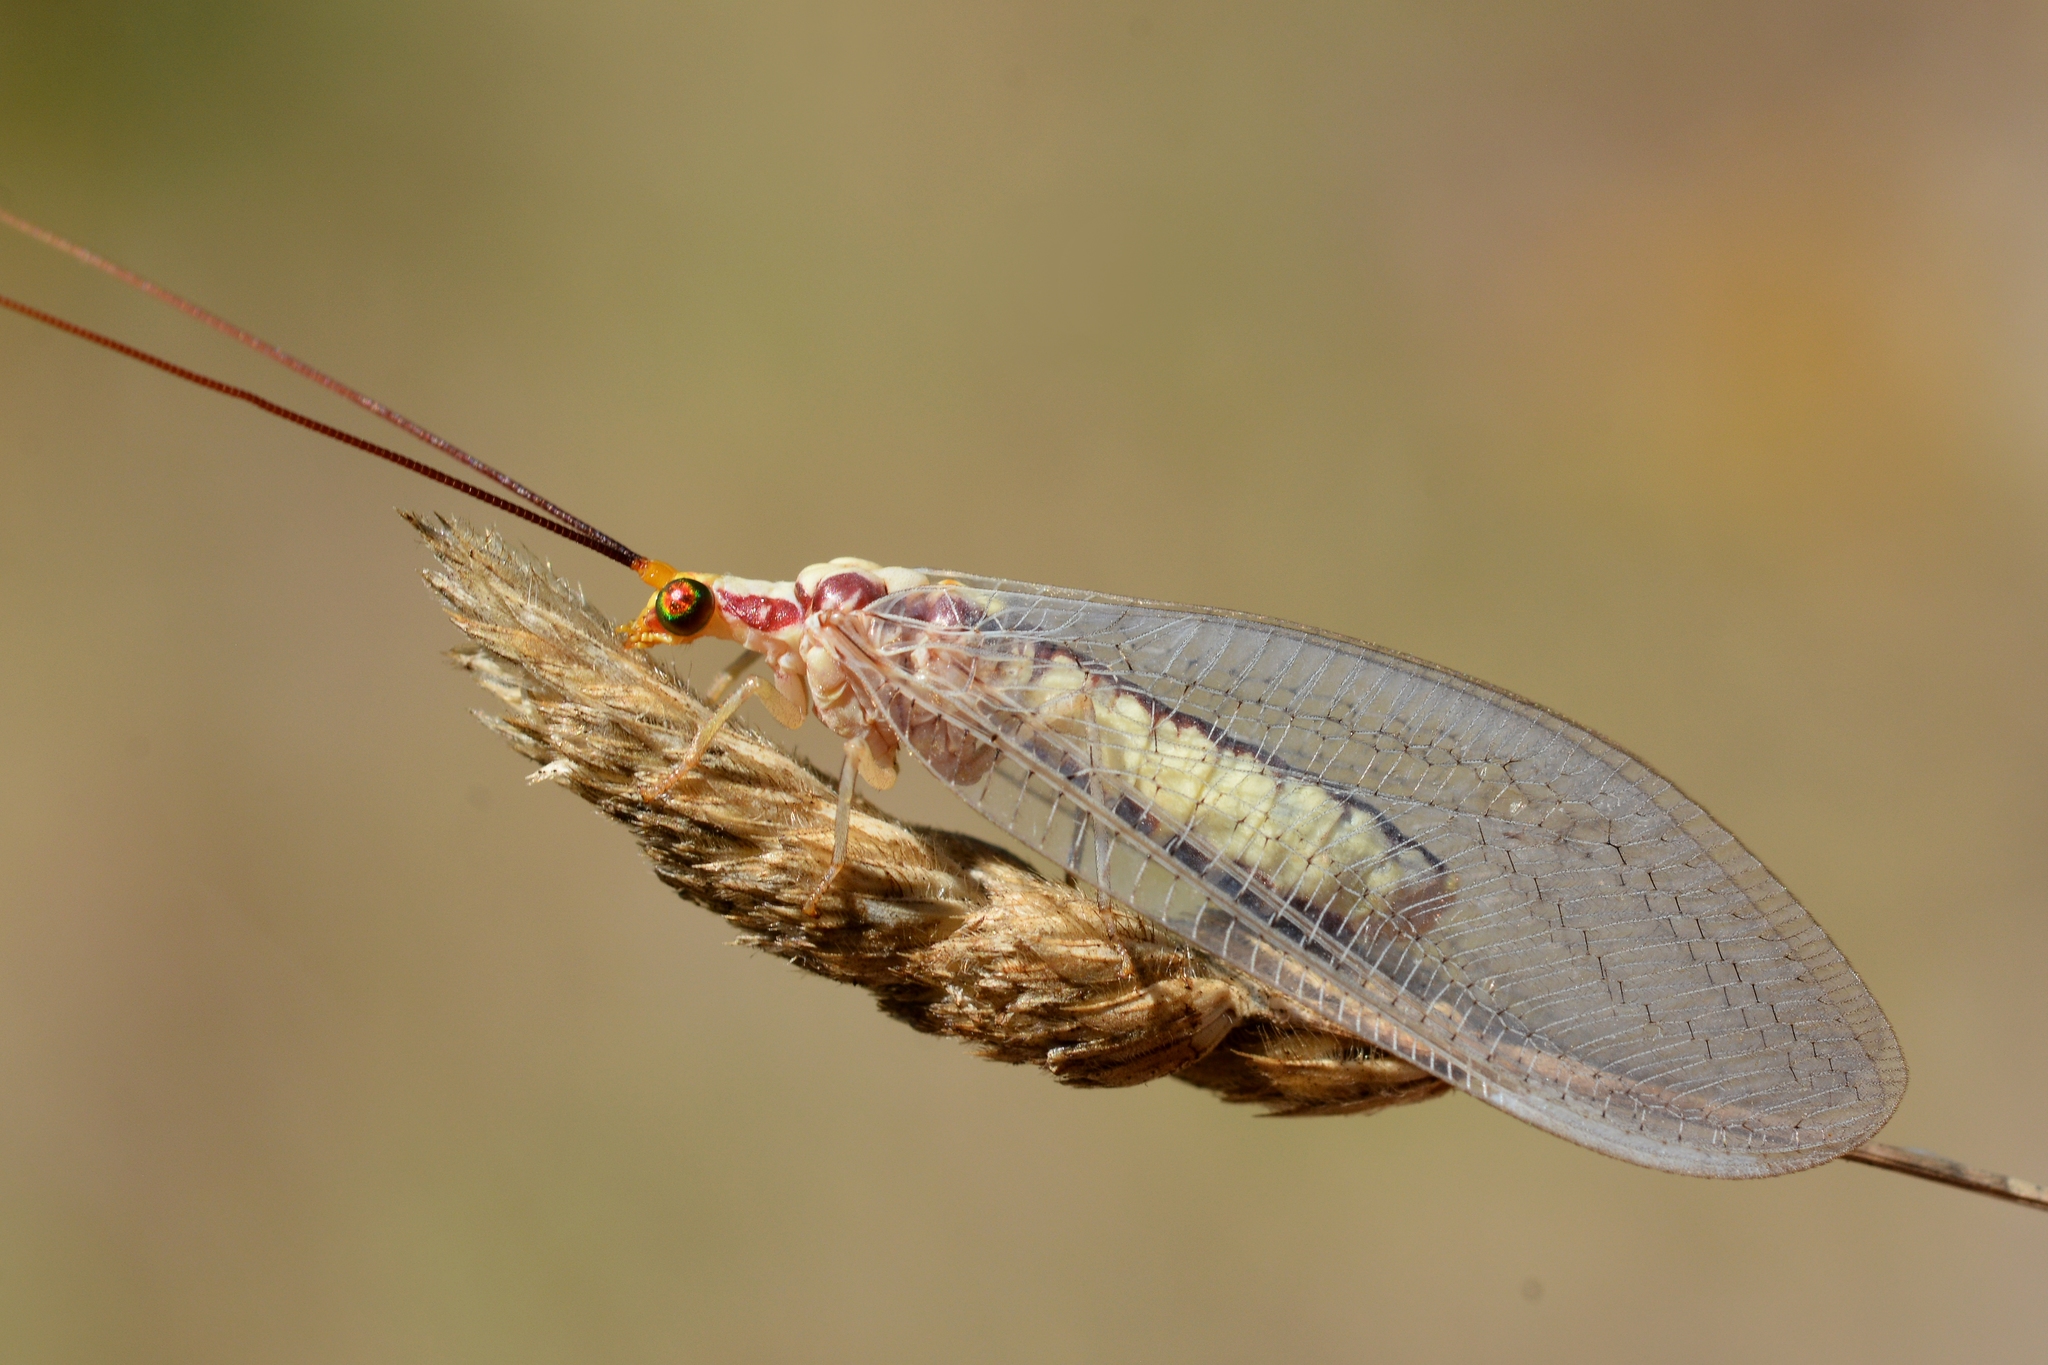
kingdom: Animalia
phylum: Arthropoda
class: Insecta
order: Neuroptera
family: Chrysopidae
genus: Italochrysa
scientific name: Italochrysa italica
